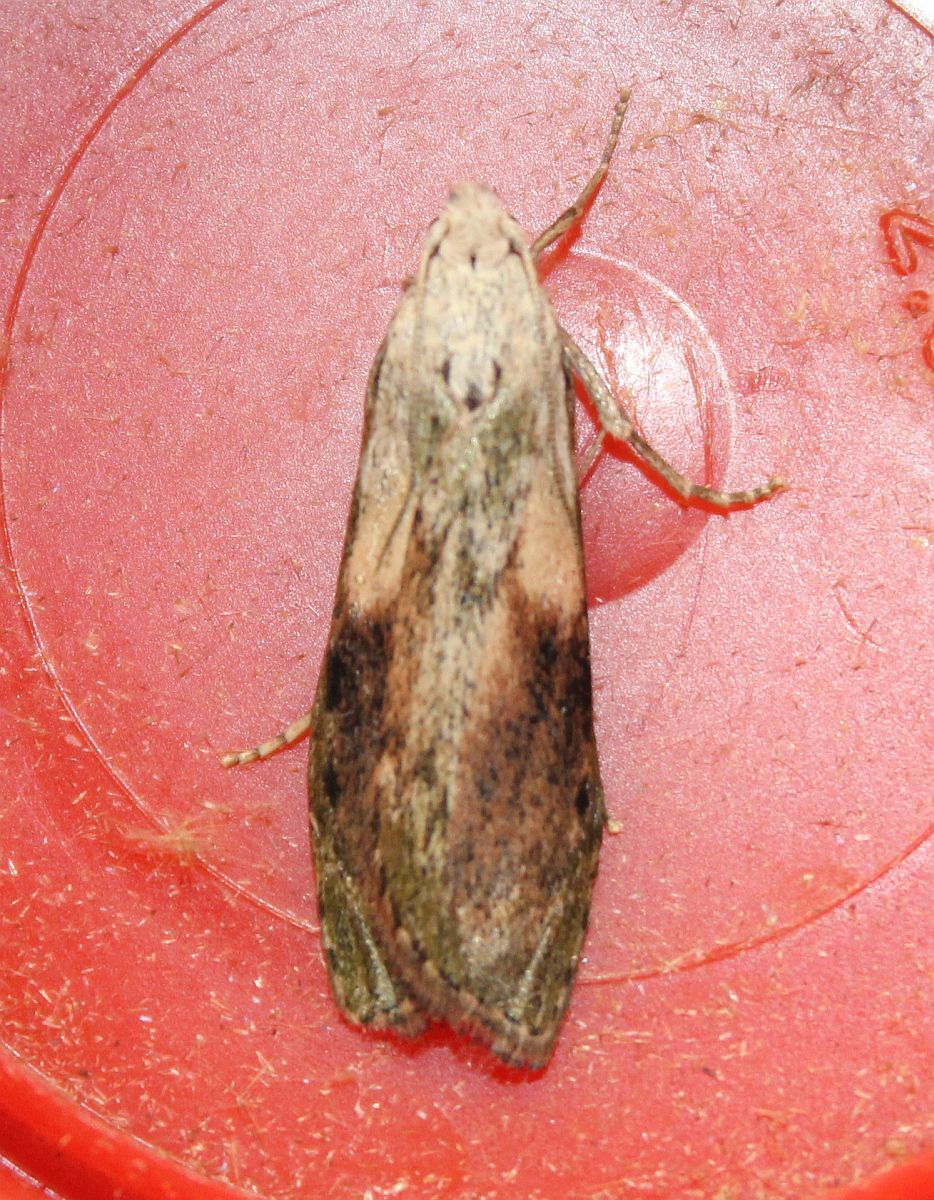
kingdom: Animalia
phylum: Arthropoda
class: Insecta
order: Lepidoptera
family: Pyralidae
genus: Aphomia
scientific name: Aphomia sociella
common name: Bee moth
